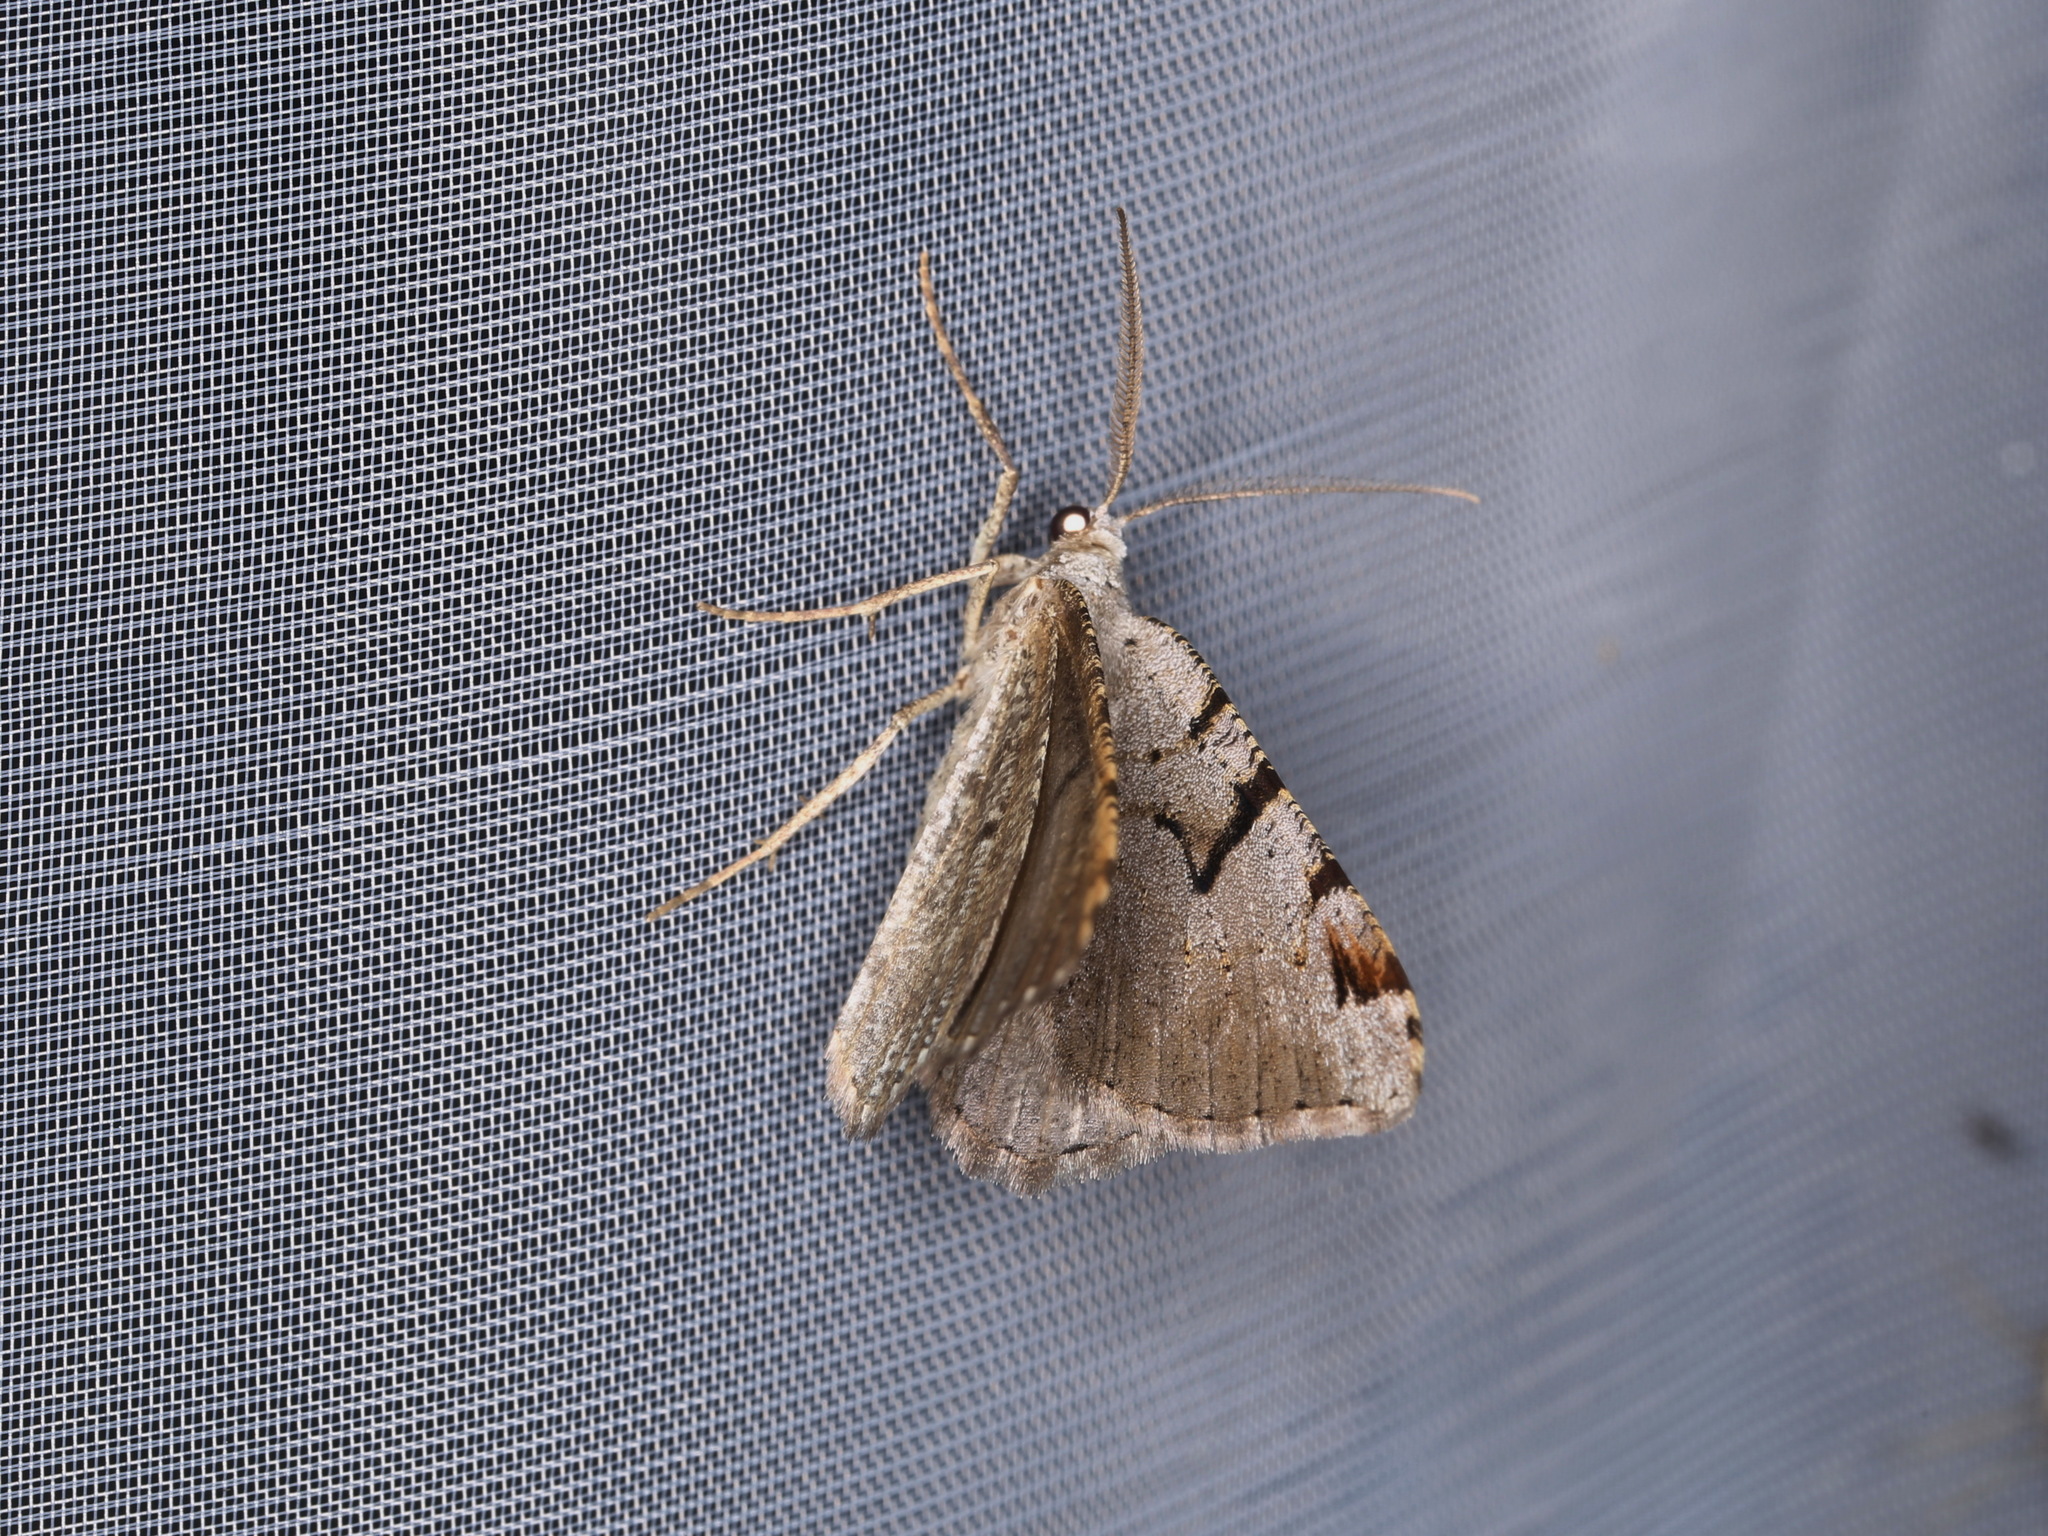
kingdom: Animalia
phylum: Arthropoda
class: Insecta
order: Lepidoptera
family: Geometridae
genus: Macaria
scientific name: Macaria wauaria
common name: V-moth
